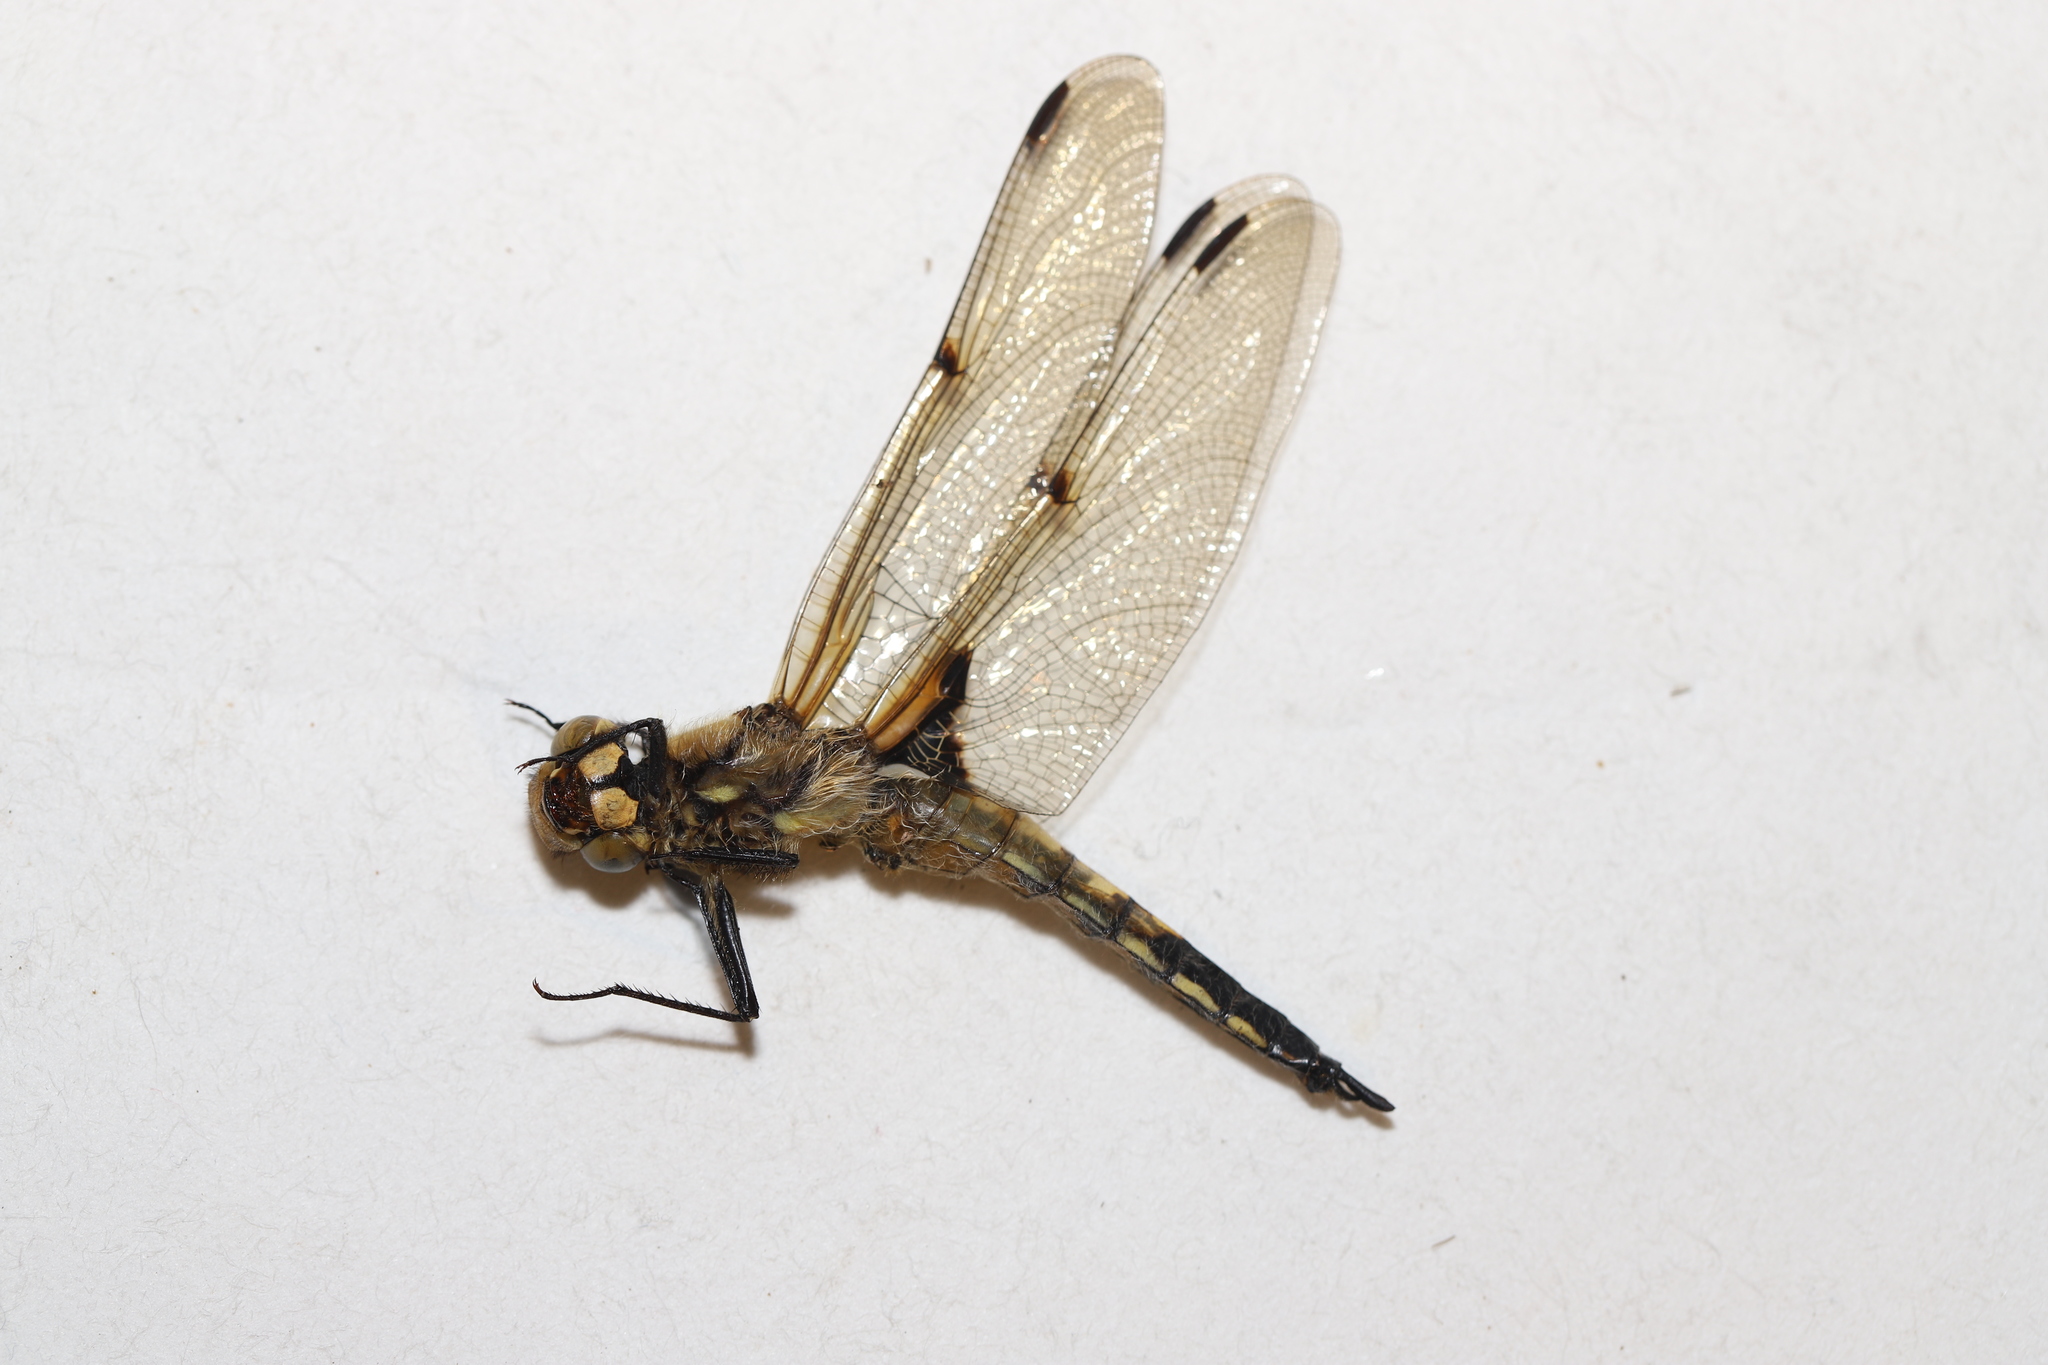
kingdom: Animalia
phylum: Arthropoda
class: Insecta
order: Odonata
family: Libellulidae
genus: Libellula
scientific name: Libellula quadrimaculata
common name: Four-spotted chaser
